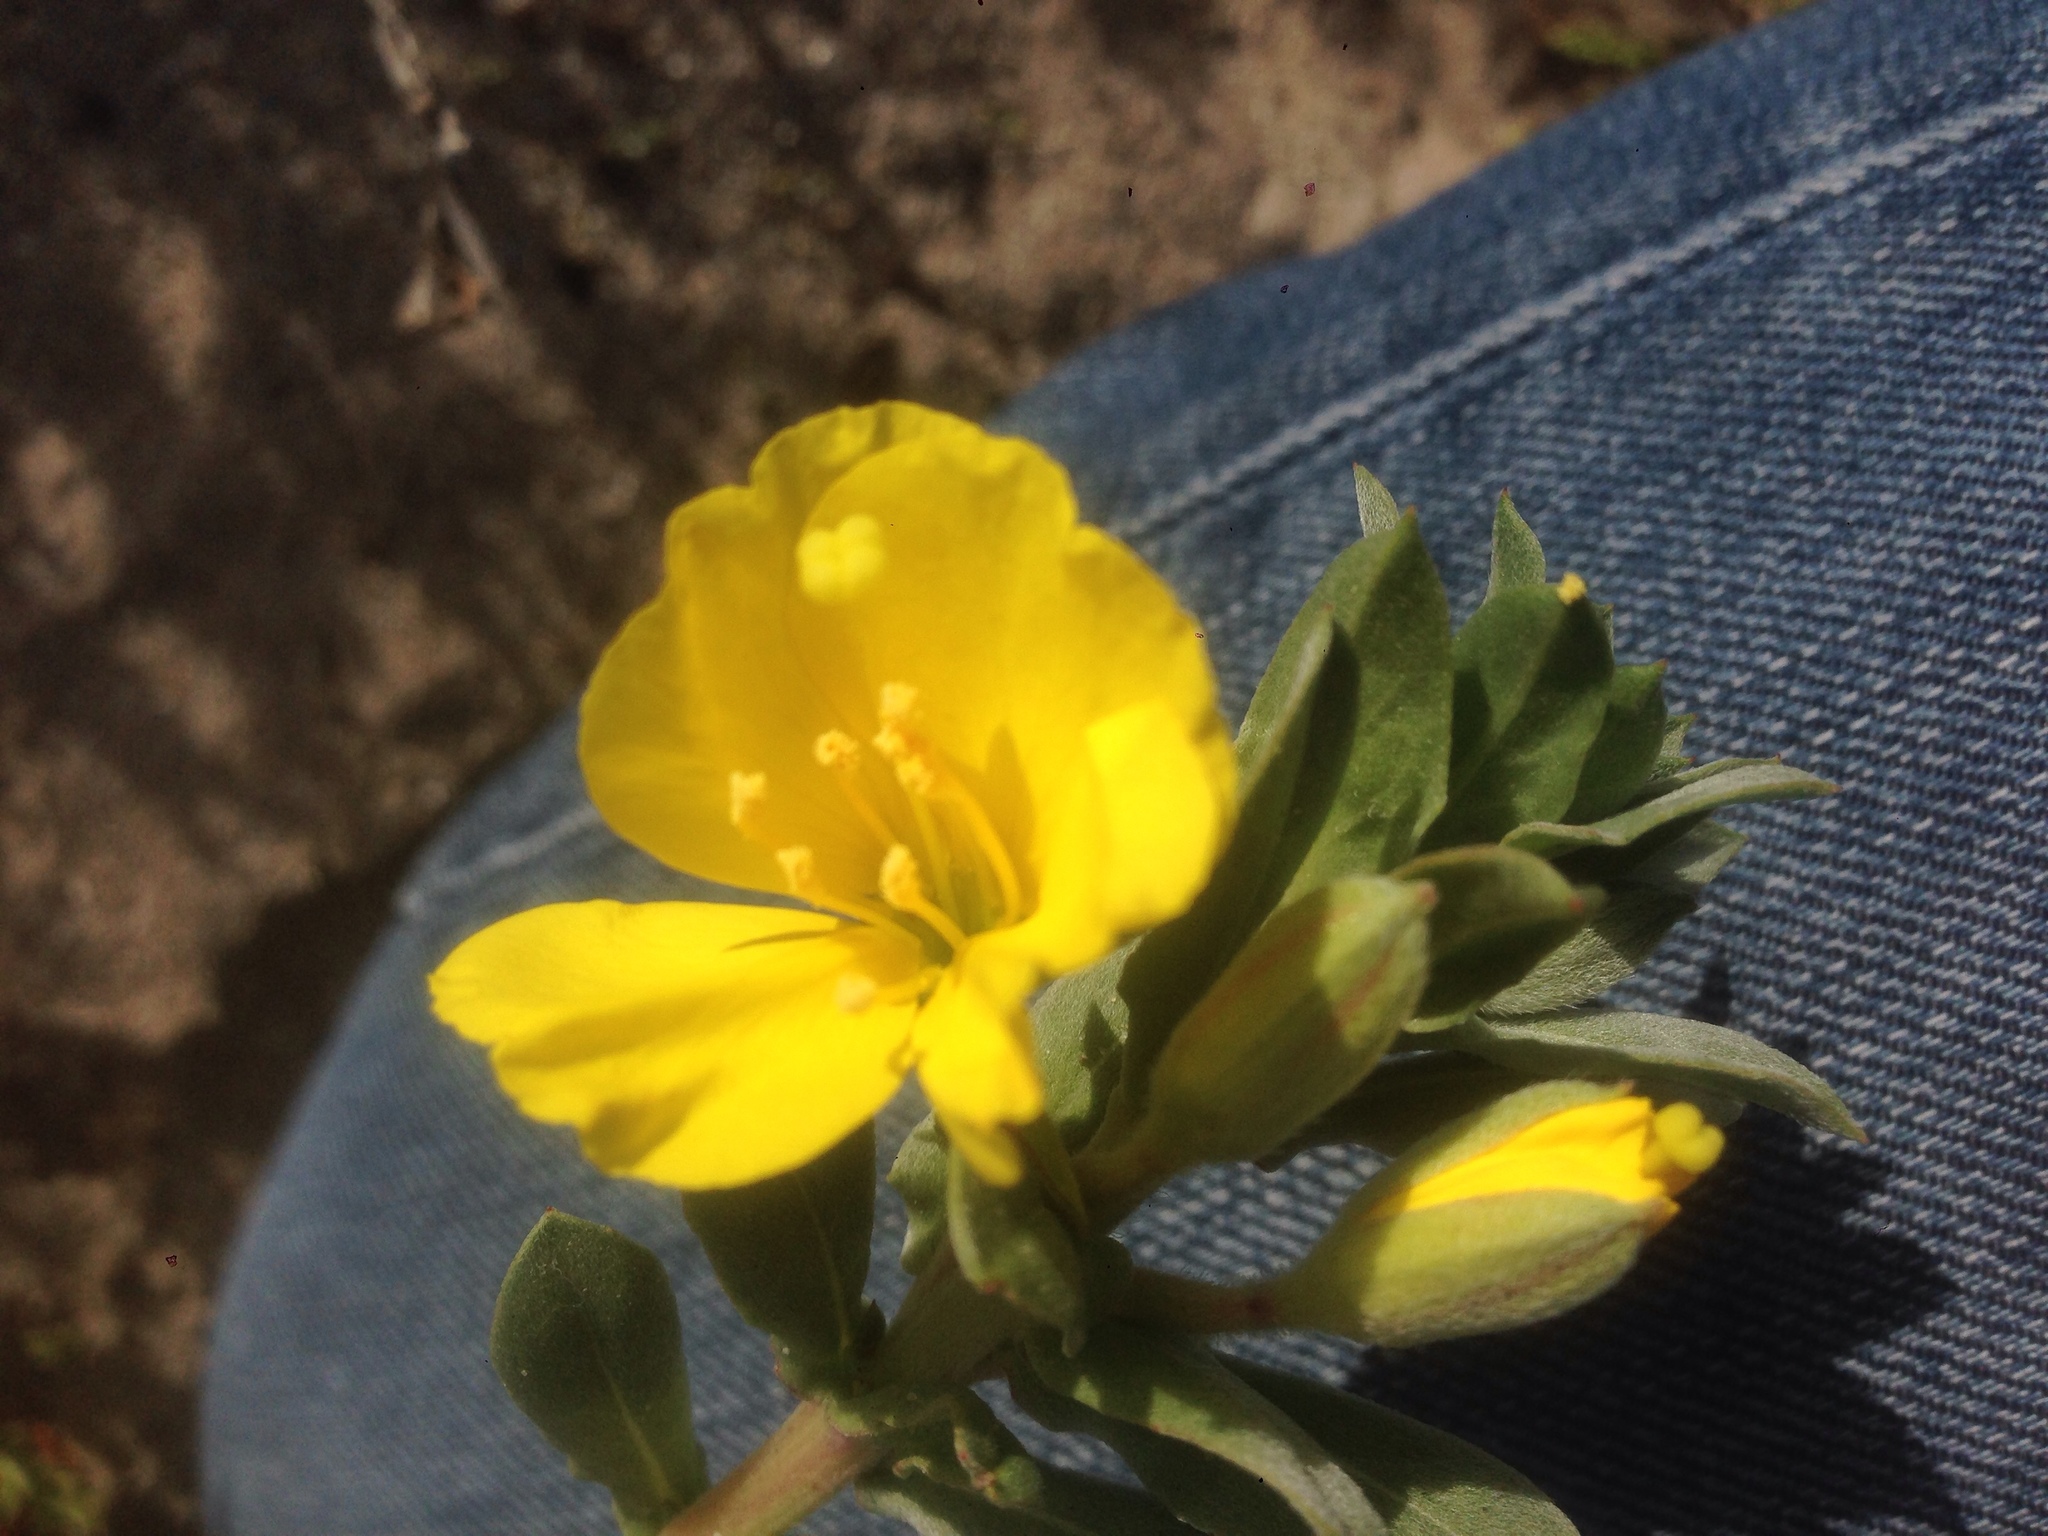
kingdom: Plantae
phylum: Tracheophyta
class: Magnoliopsida
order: Myrtales
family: Onagraceae
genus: Camissoniopsis
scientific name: Camissoniopsis cheiranthifolia
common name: Beach suncup
